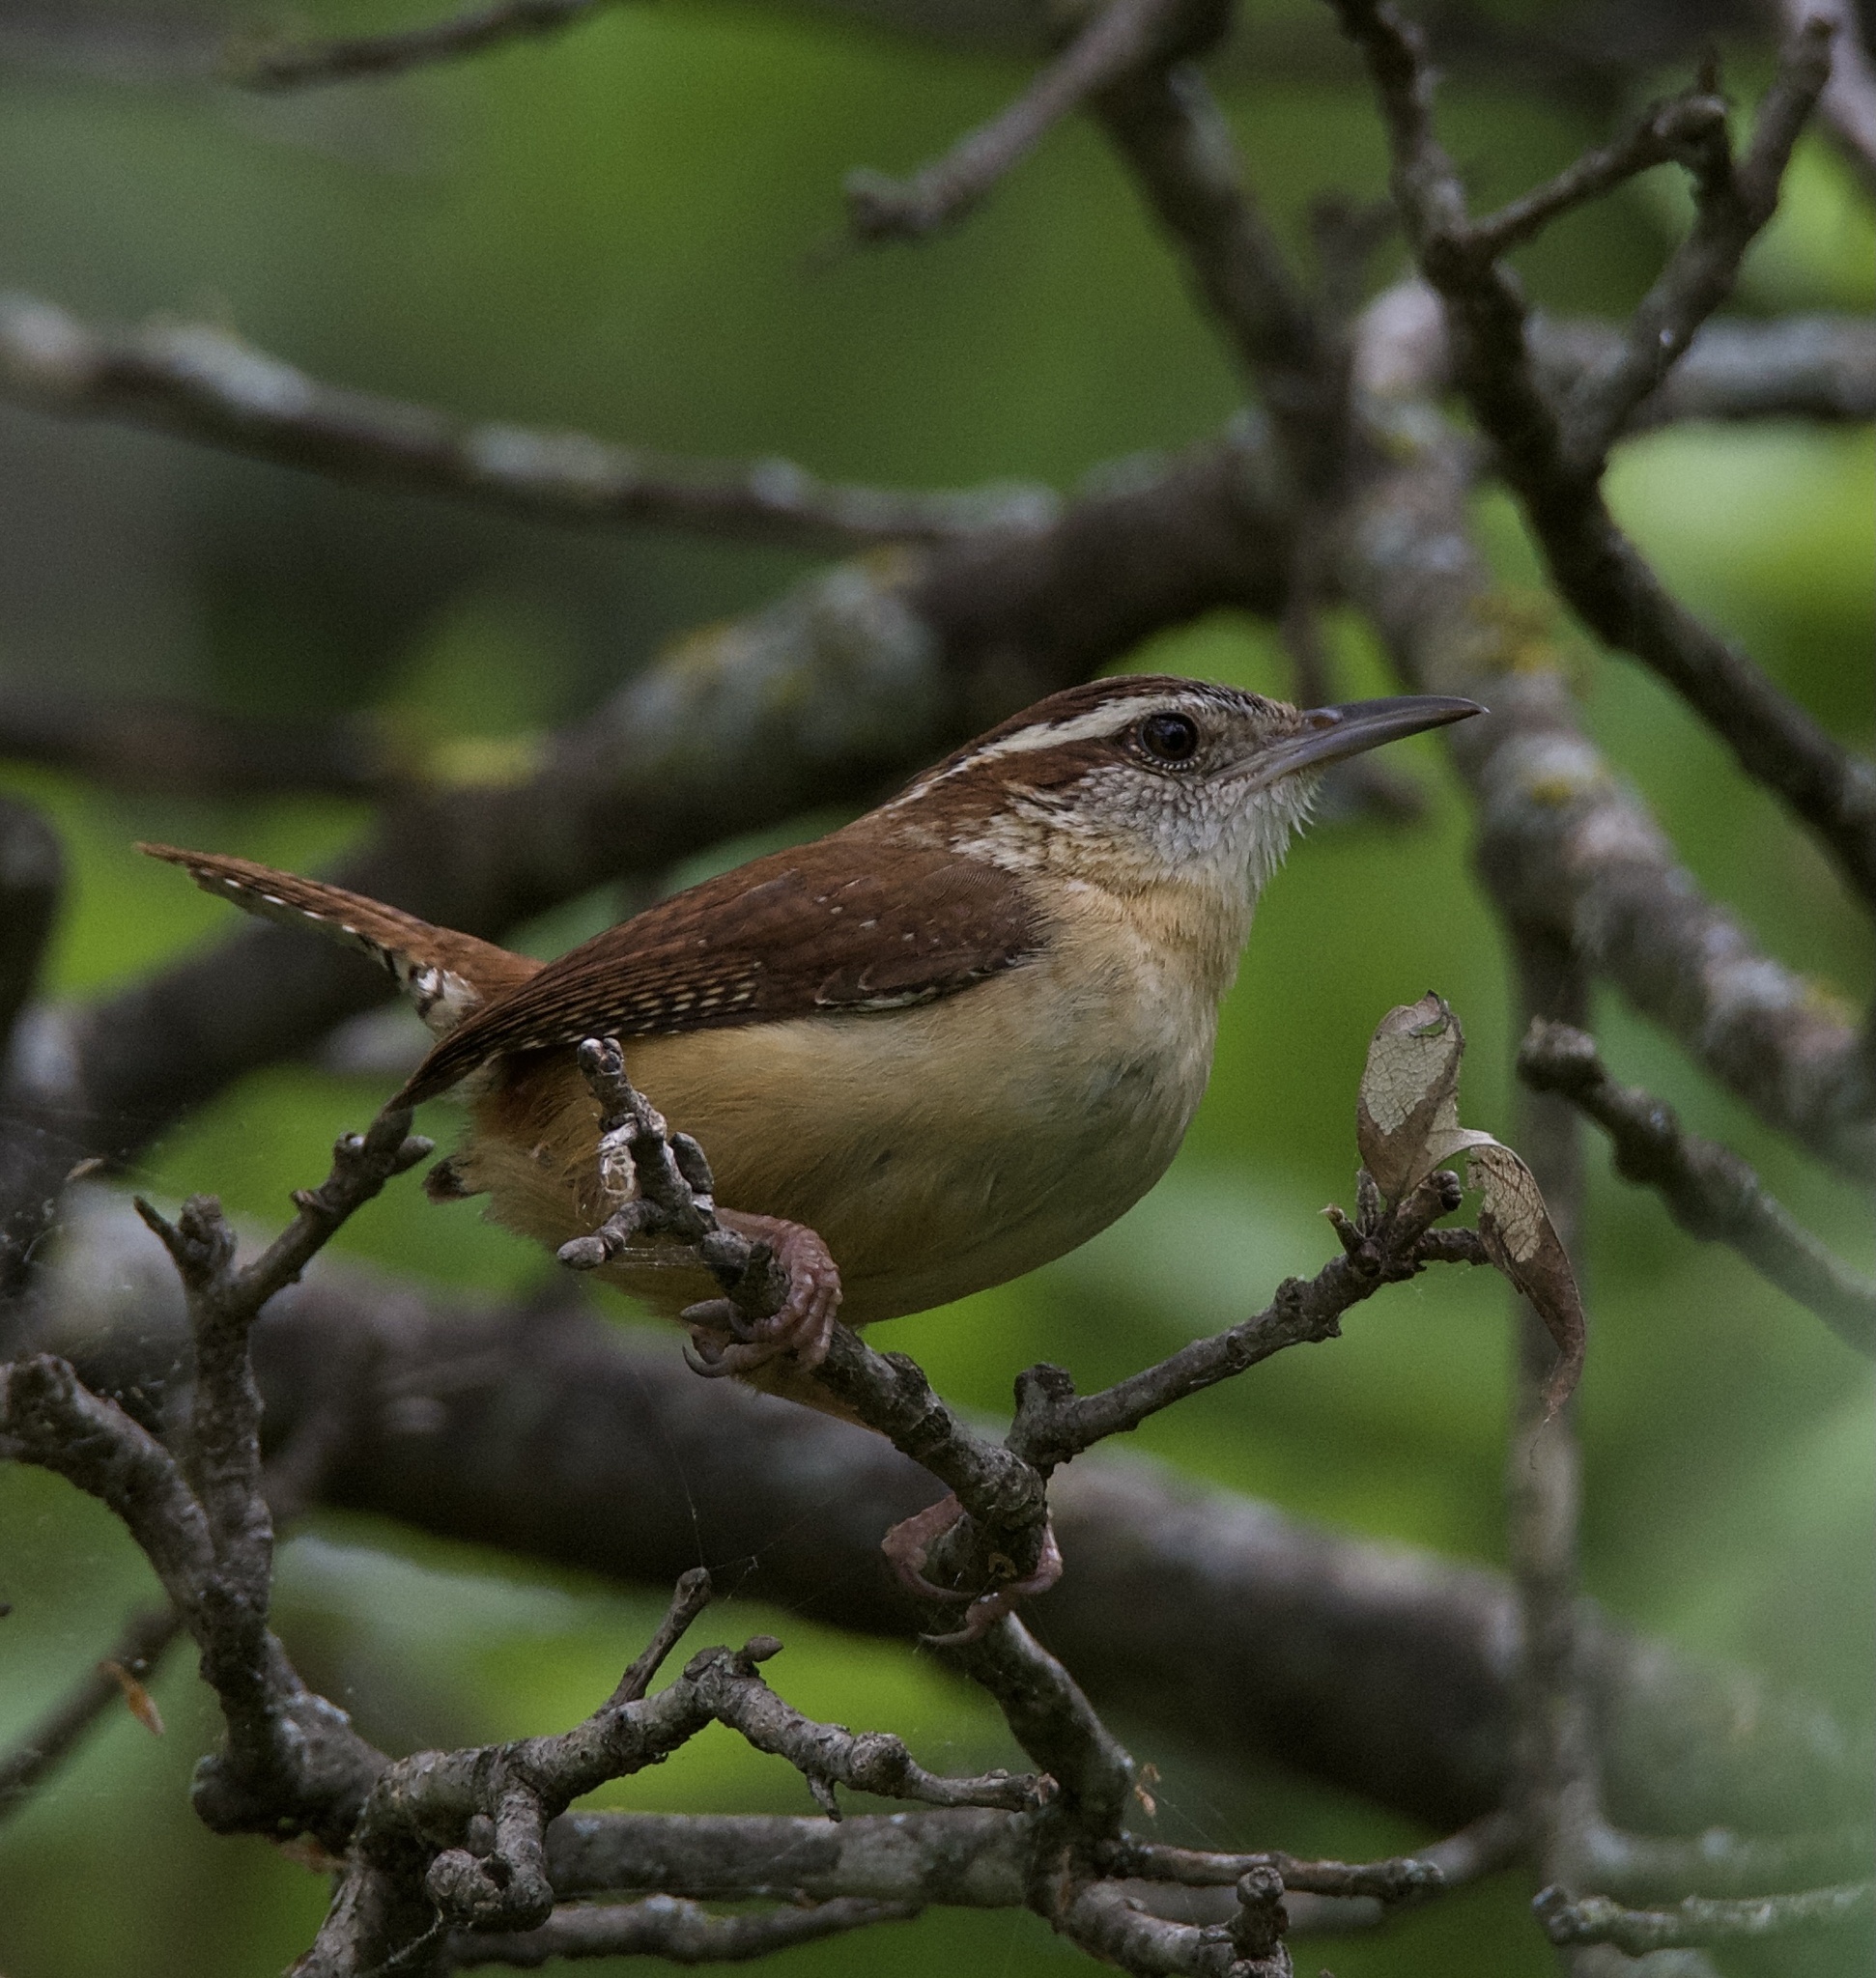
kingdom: Animalia
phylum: Chordata
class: Aves
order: Passeriformes
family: Troglodytidae
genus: Thryothorus
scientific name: Thryothorus ludovicianus
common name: Carolina wren
